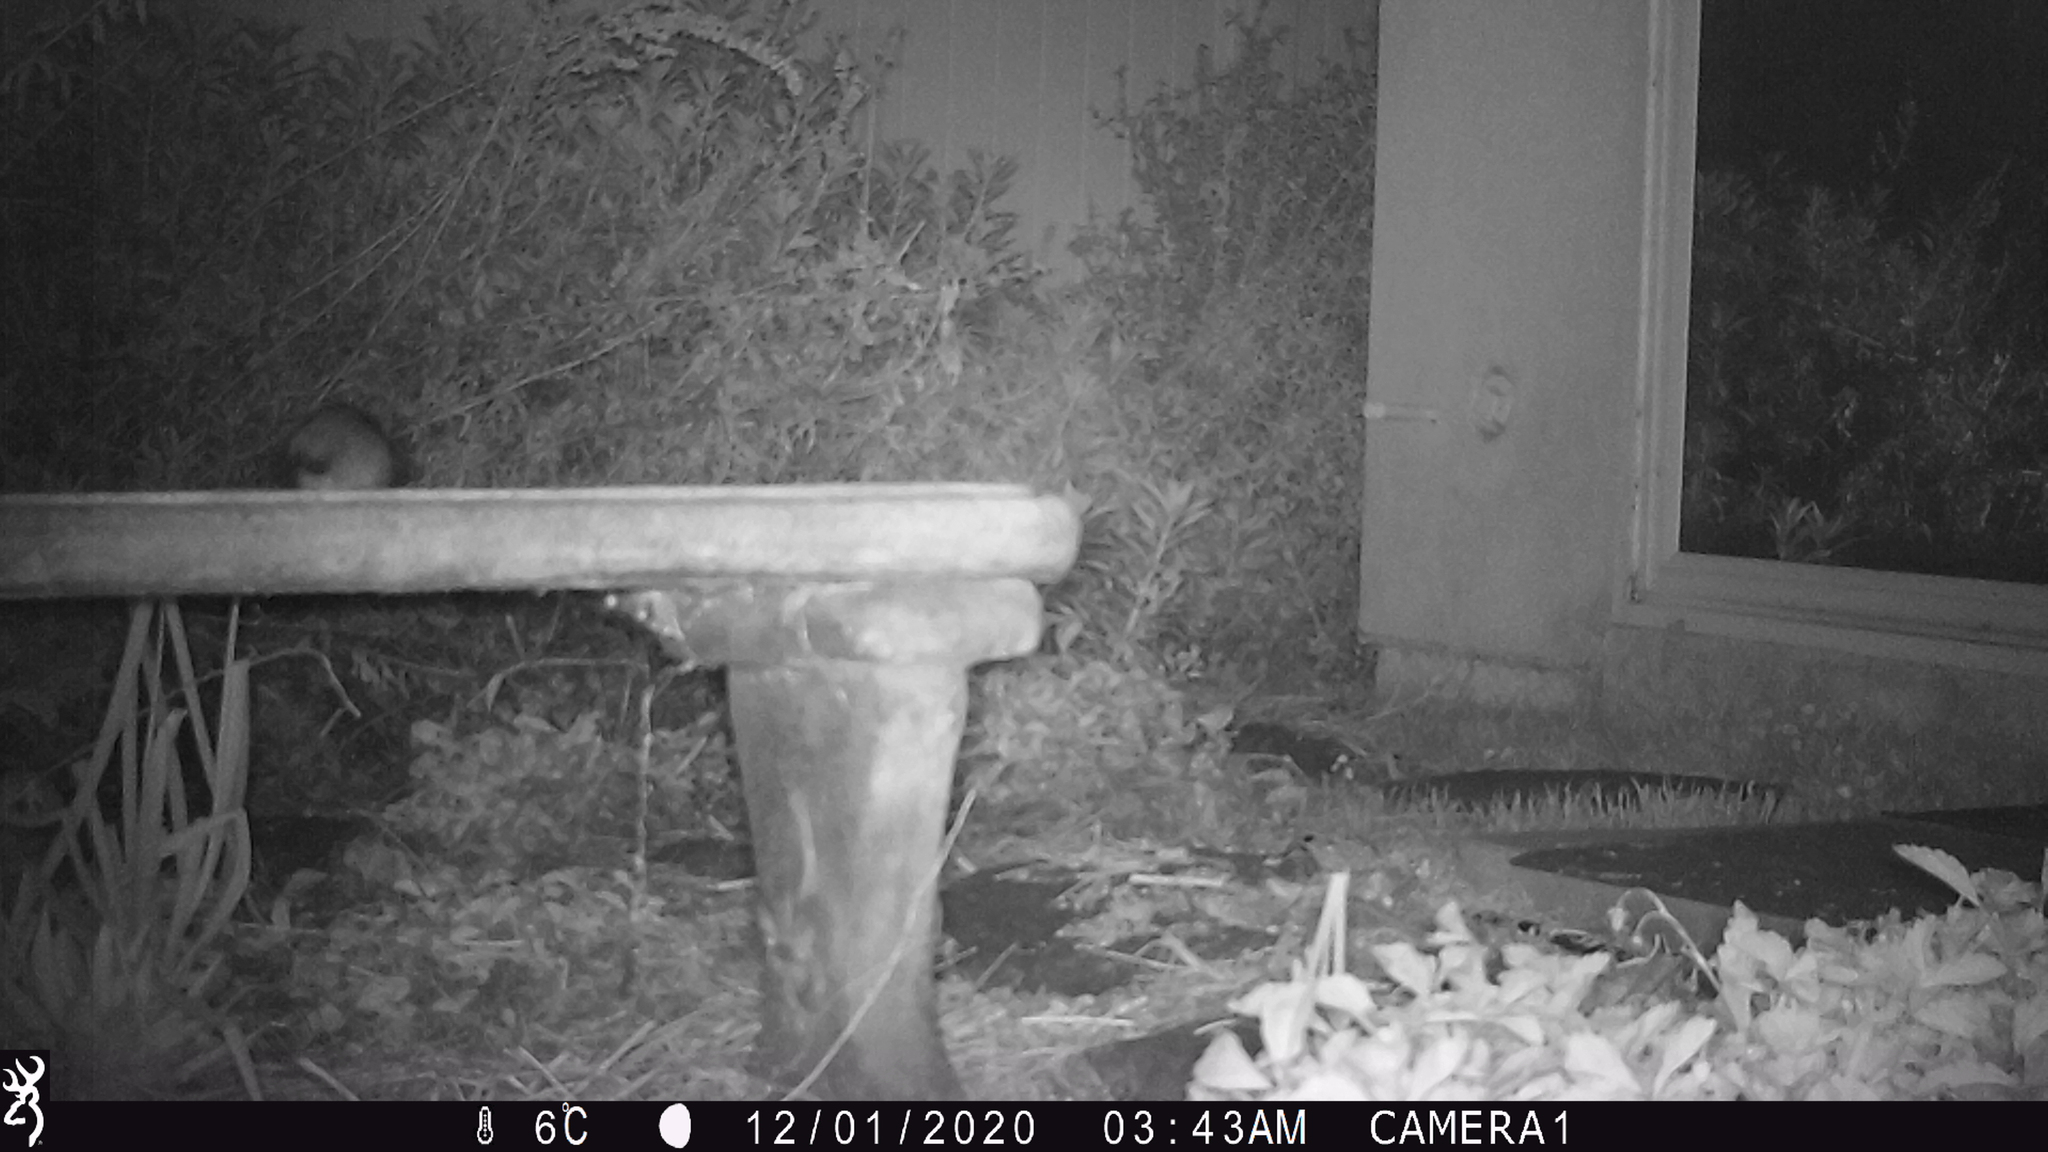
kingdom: Animalia
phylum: Chordata
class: Mammalia
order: Rodentia
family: Muridae
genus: Rattus
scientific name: Rattus rattus
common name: Black rat
